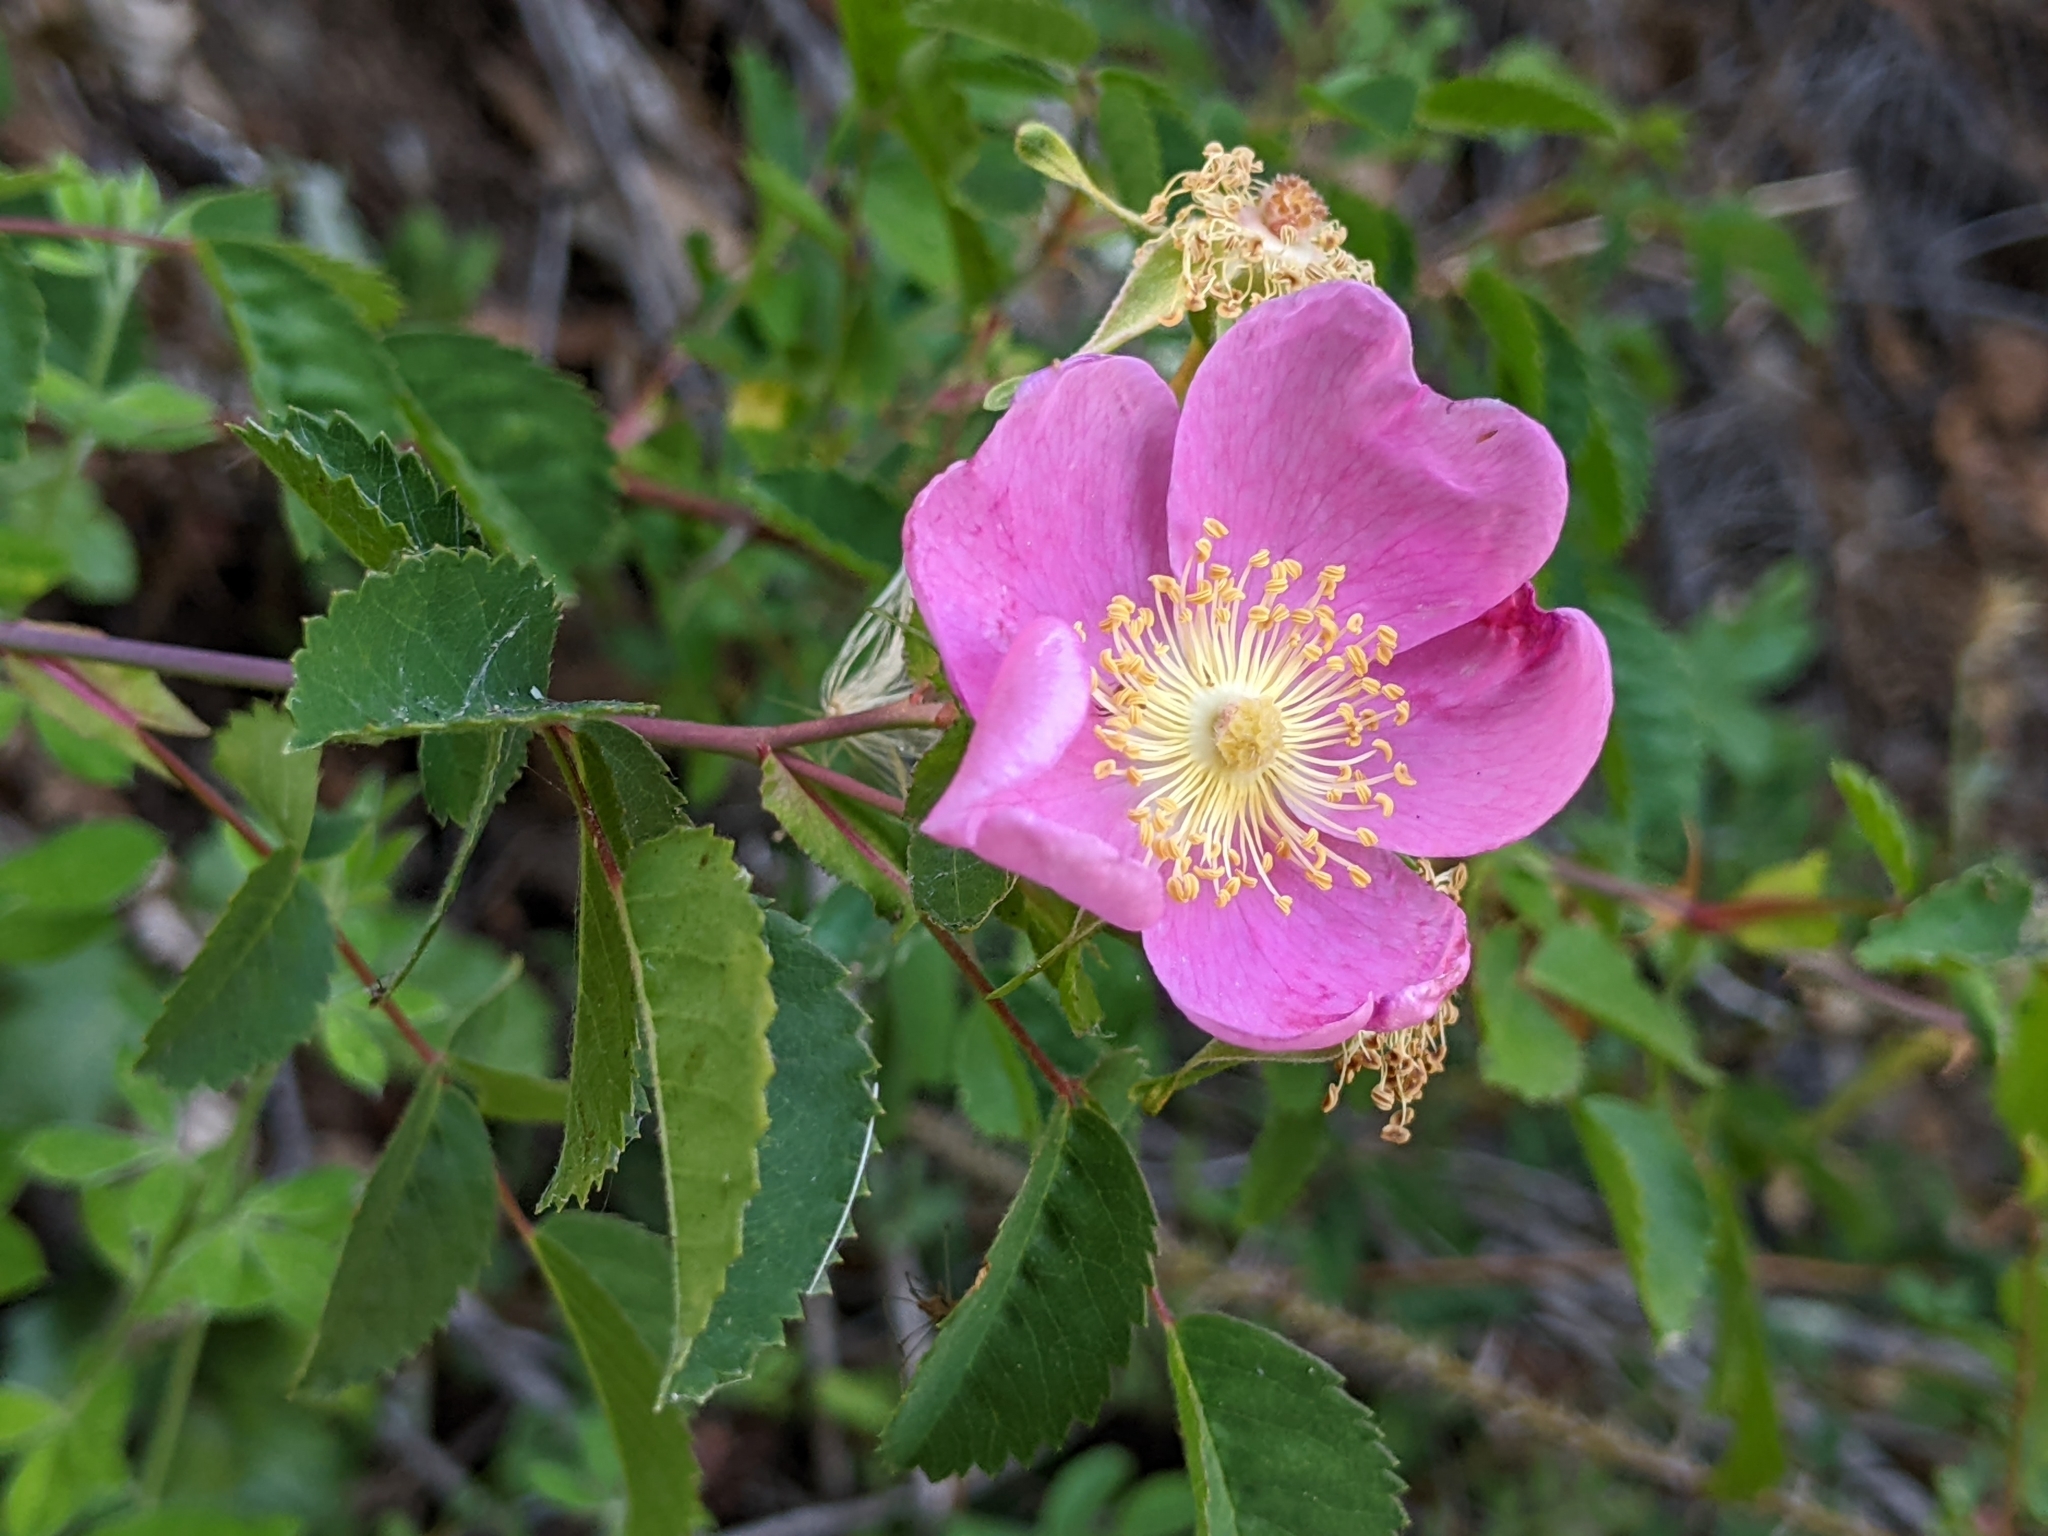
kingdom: Plantae
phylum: Tracheophyta
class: Magnoliopsida
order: Rosales
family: Rosaceae
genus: Rosa
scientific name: Rosa californica
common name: California rose
